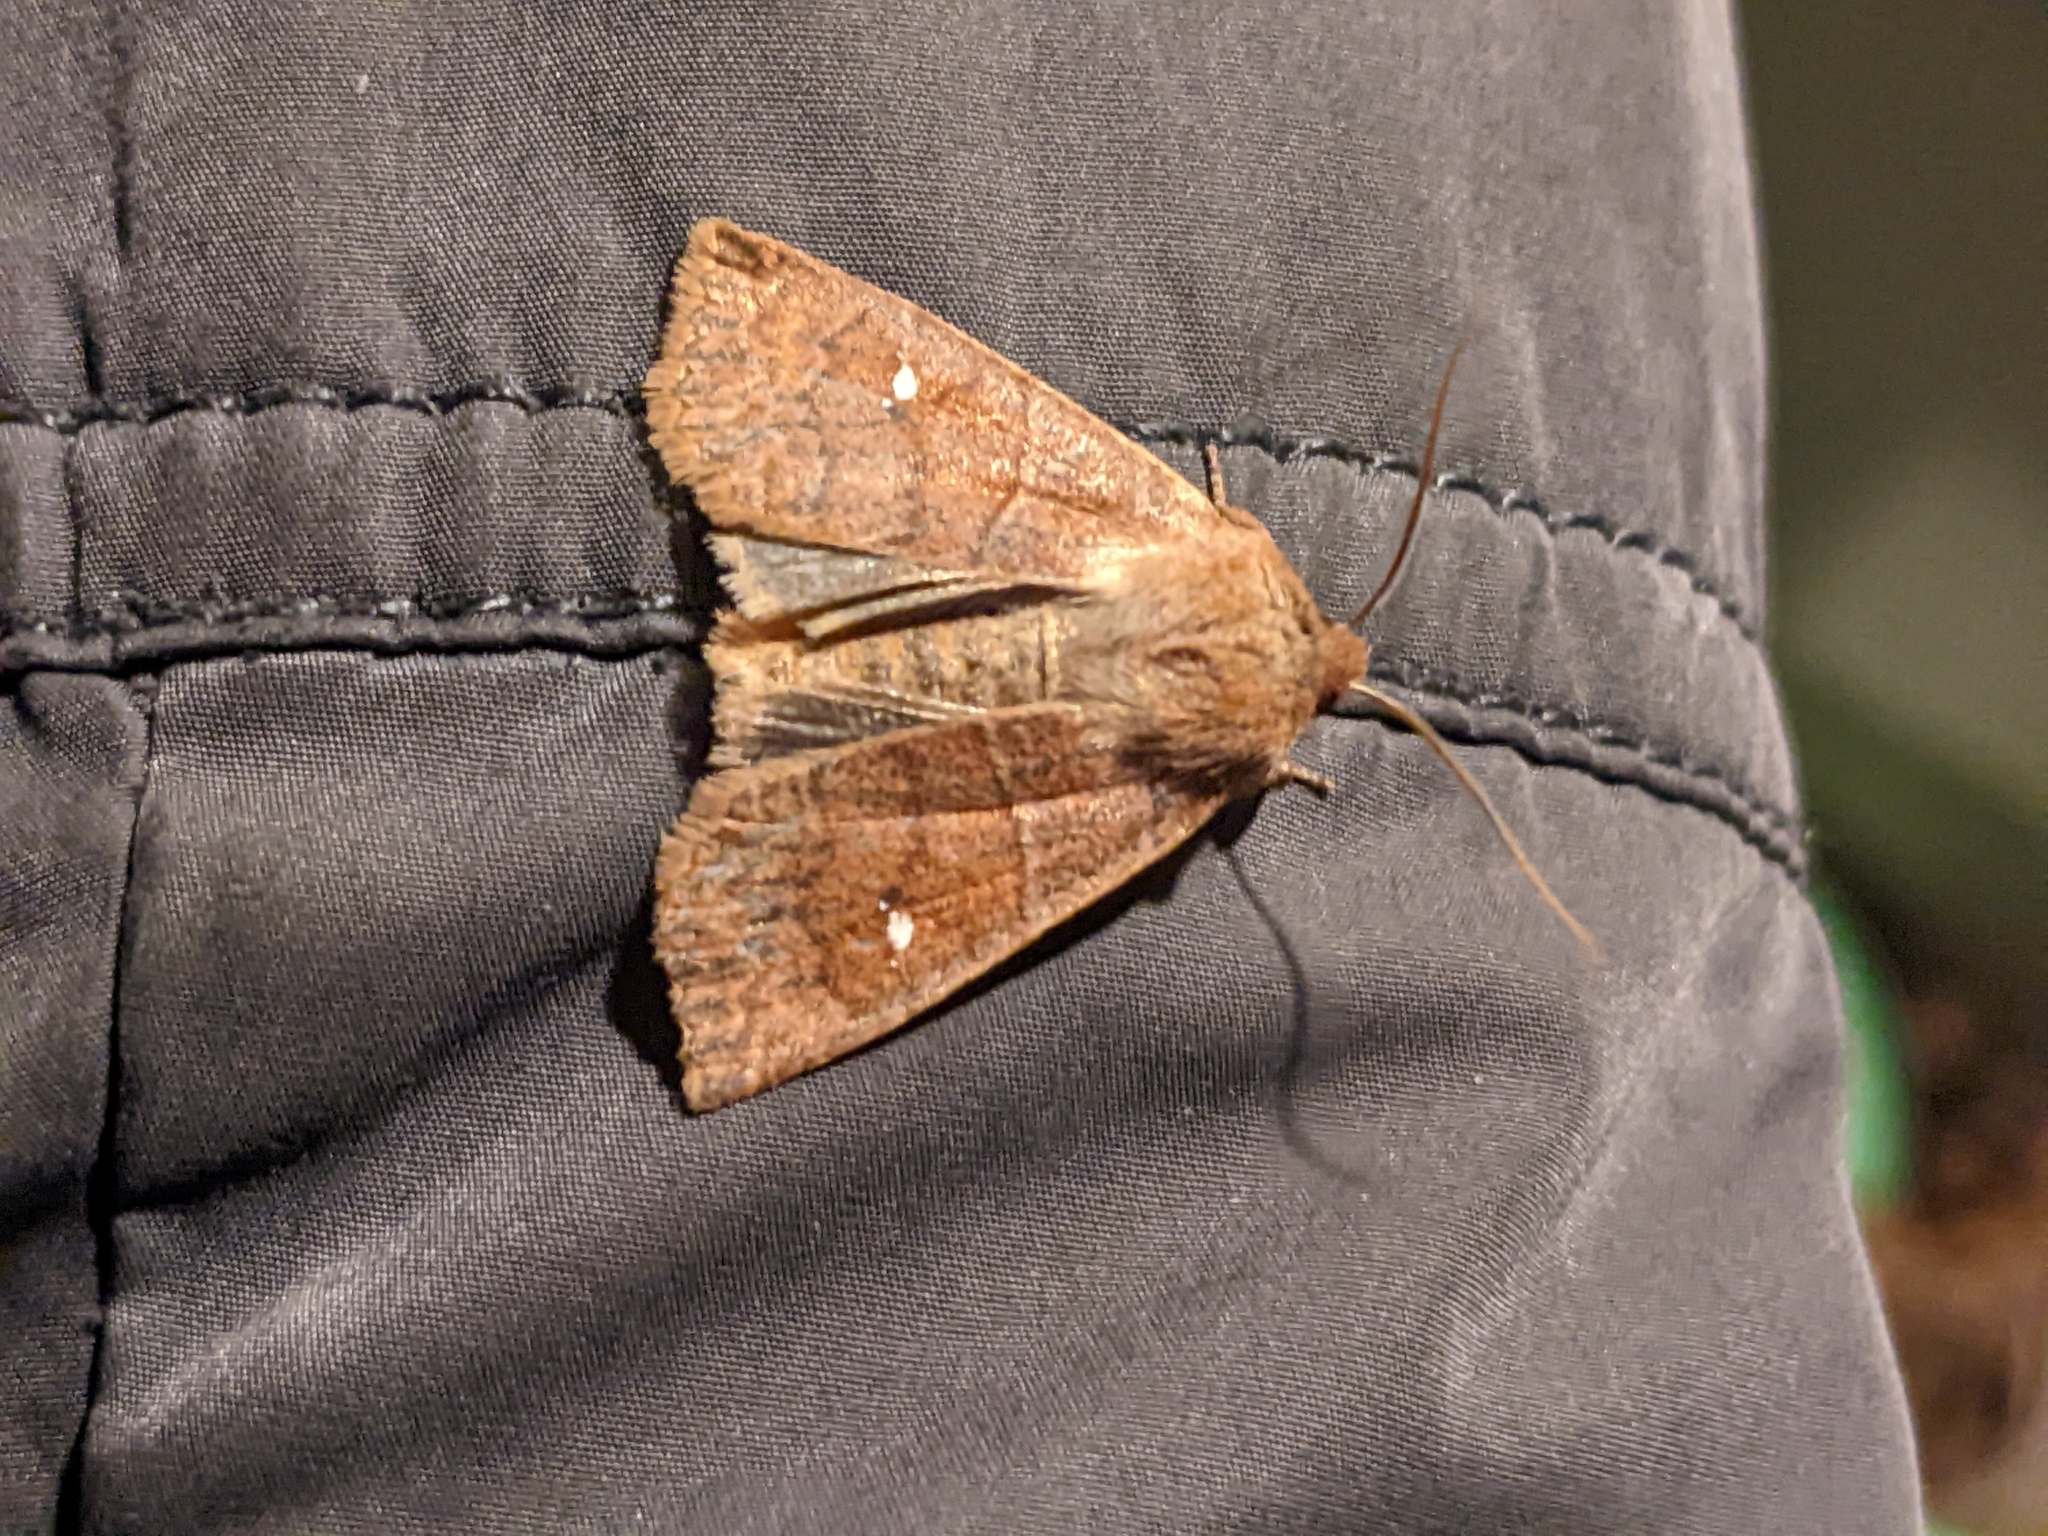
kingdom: Animalia
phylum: Arthropoda
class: Insecta
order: Lepidoptera
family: Noctuidae
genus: Eupsilia
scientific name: Eupsilia vinulenta
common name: Straight-toothed sallow
